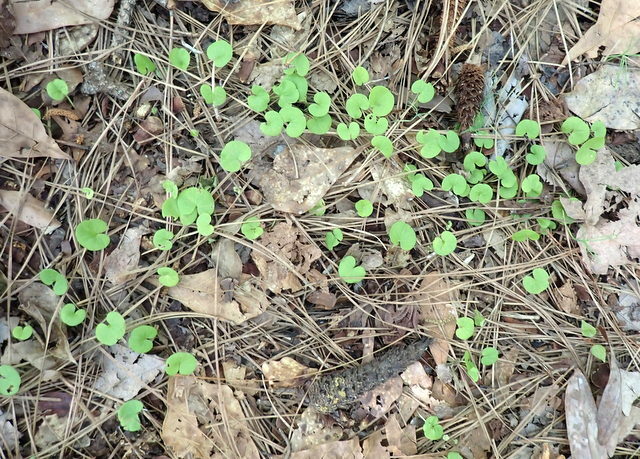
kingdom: Plantae
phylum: Tracheophyta
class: Magnoliopsida
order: Solanales
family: Convolvulaceae
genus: Dichondra
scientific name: Dichondra carolinensis
